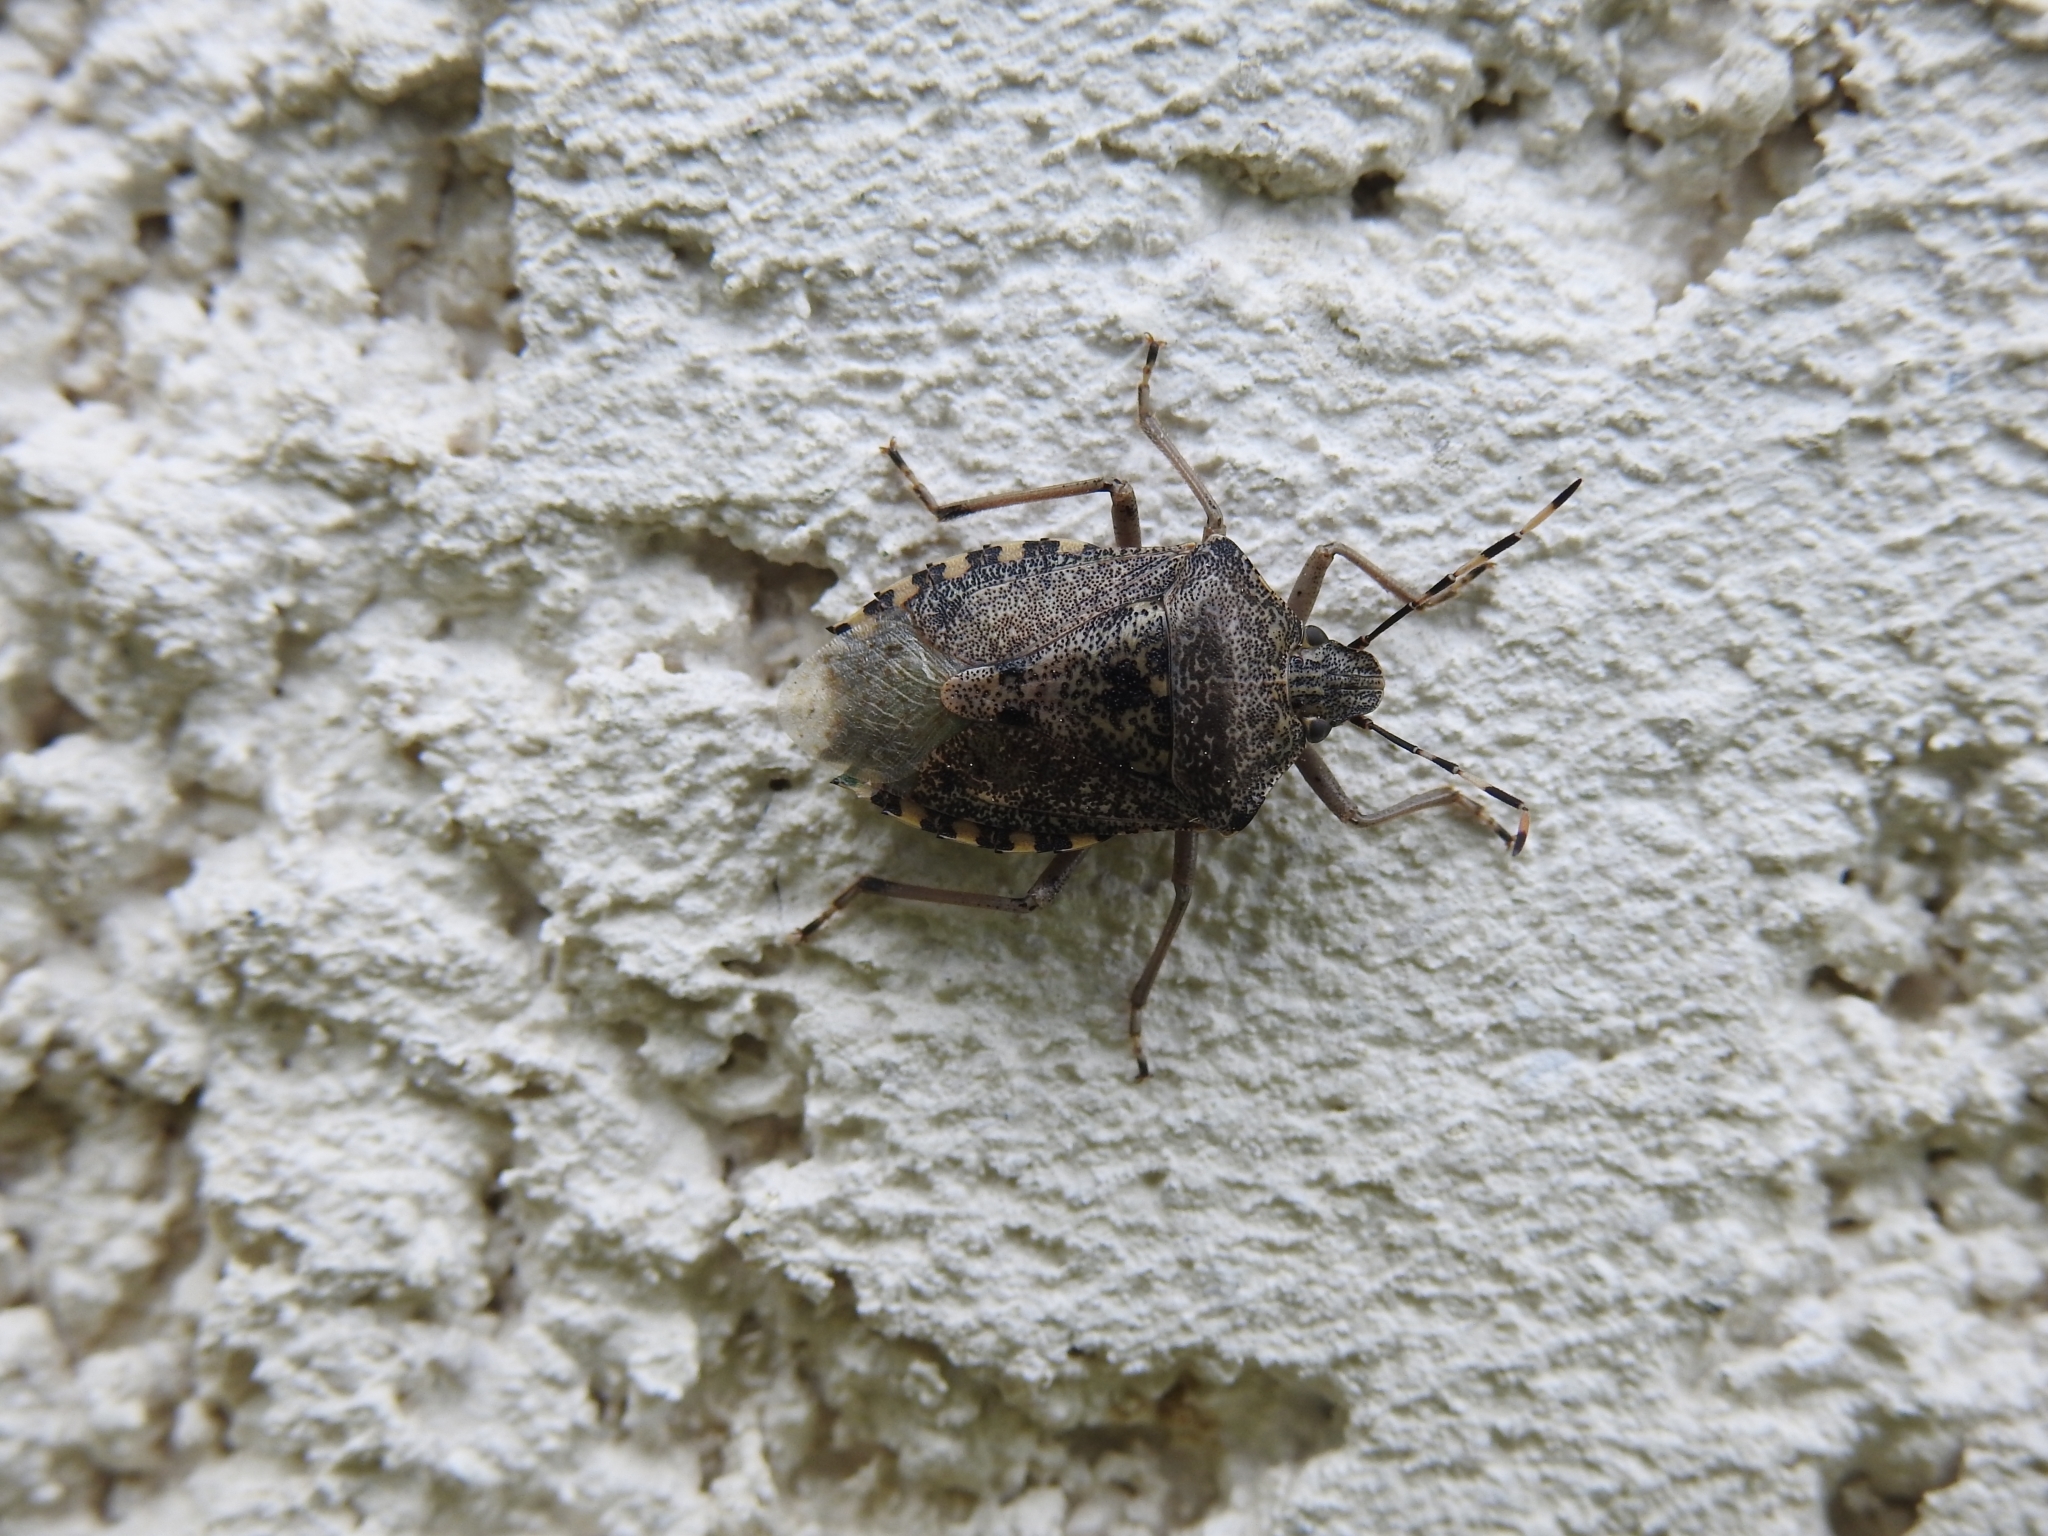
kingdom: Animalia
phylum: Arthropoda
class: Insecta
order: Hemiptera
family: Pentatomidae
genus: Rhaphigaster
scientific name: Rhaphigaster nebulosa
